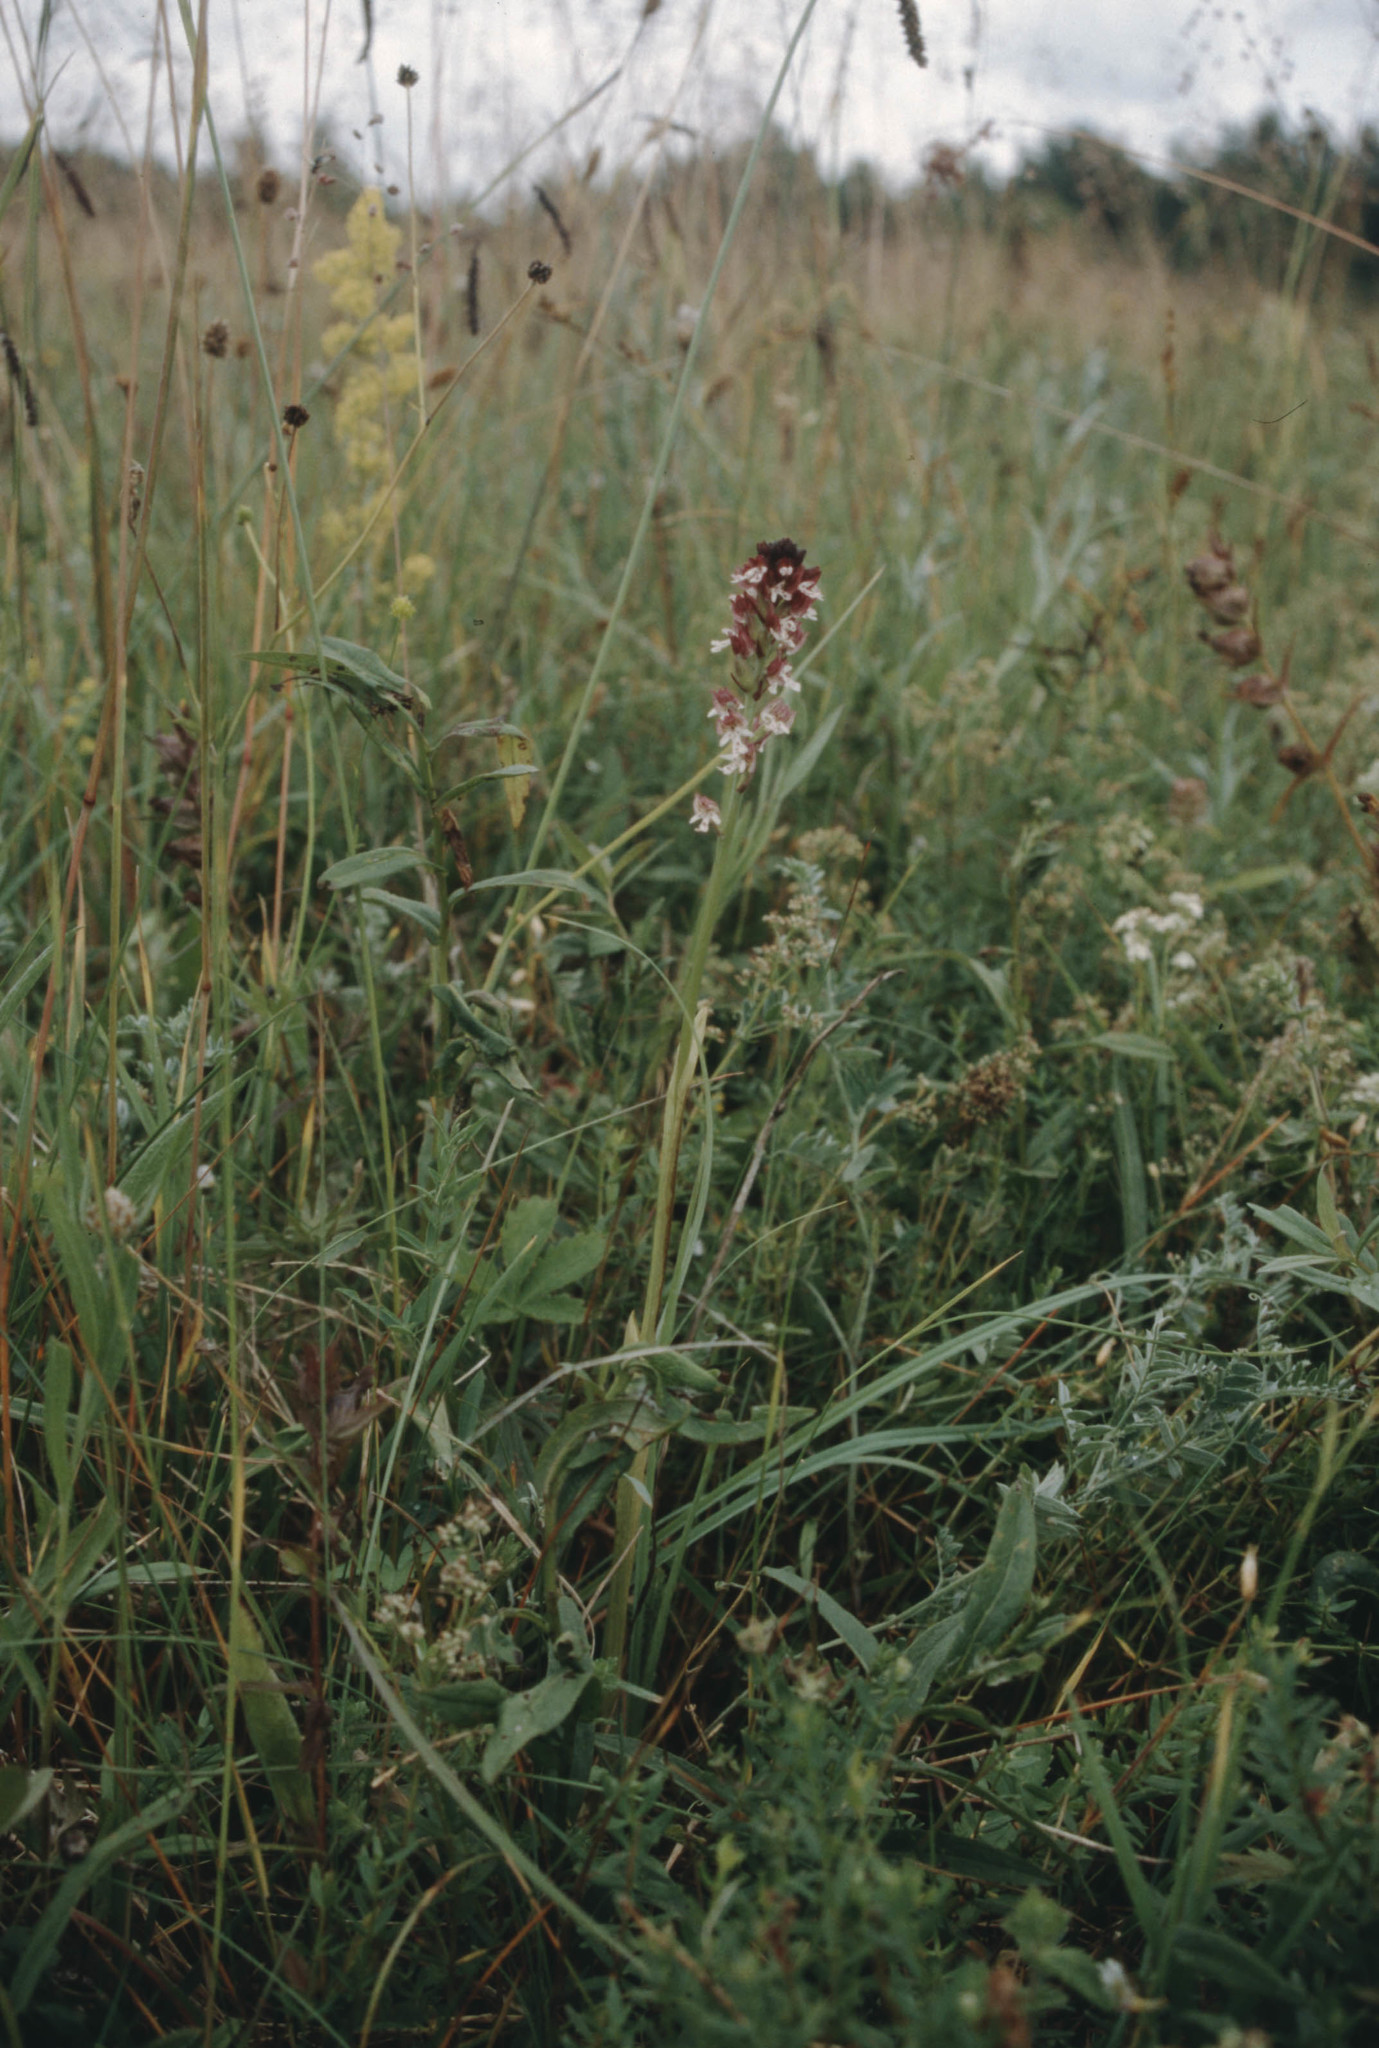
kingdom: Plantae
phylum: Tracheophyta
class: Liliopsida
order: Asparagales
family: Orchidaceae
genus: Neotinea
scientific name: Neotinea ustulata
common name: Burnt orchid
